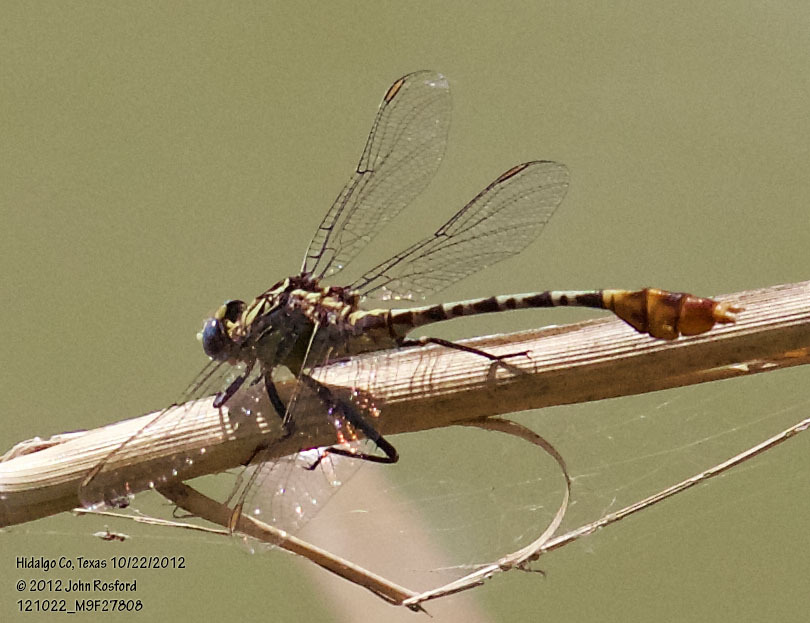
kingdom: Animalia
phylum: Arthropoda
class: Insecta
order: Odonata
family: Gomphidae
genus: Dromogomphus
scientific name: Dromogomphus spoliatus
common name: Flag-tailed spinyleg
